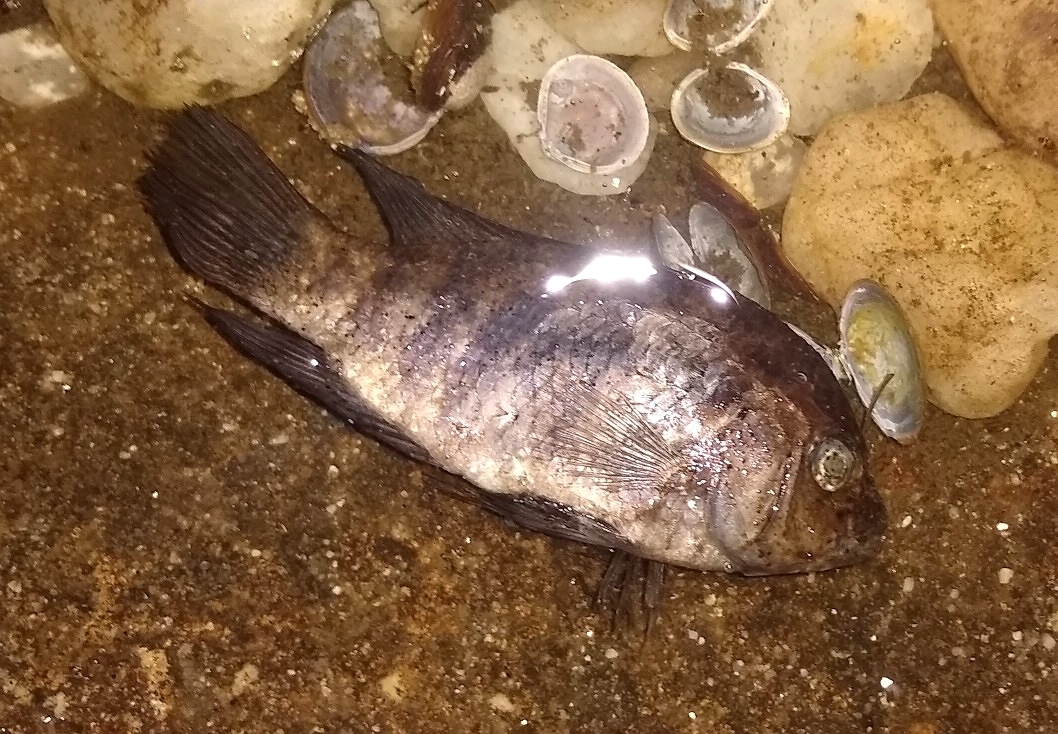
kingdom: Animalia
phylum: Chordata
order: Perciformes
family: Cichlidae
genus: Australoheros
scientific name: Australoheros facetus
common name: Chameleon cichlid
